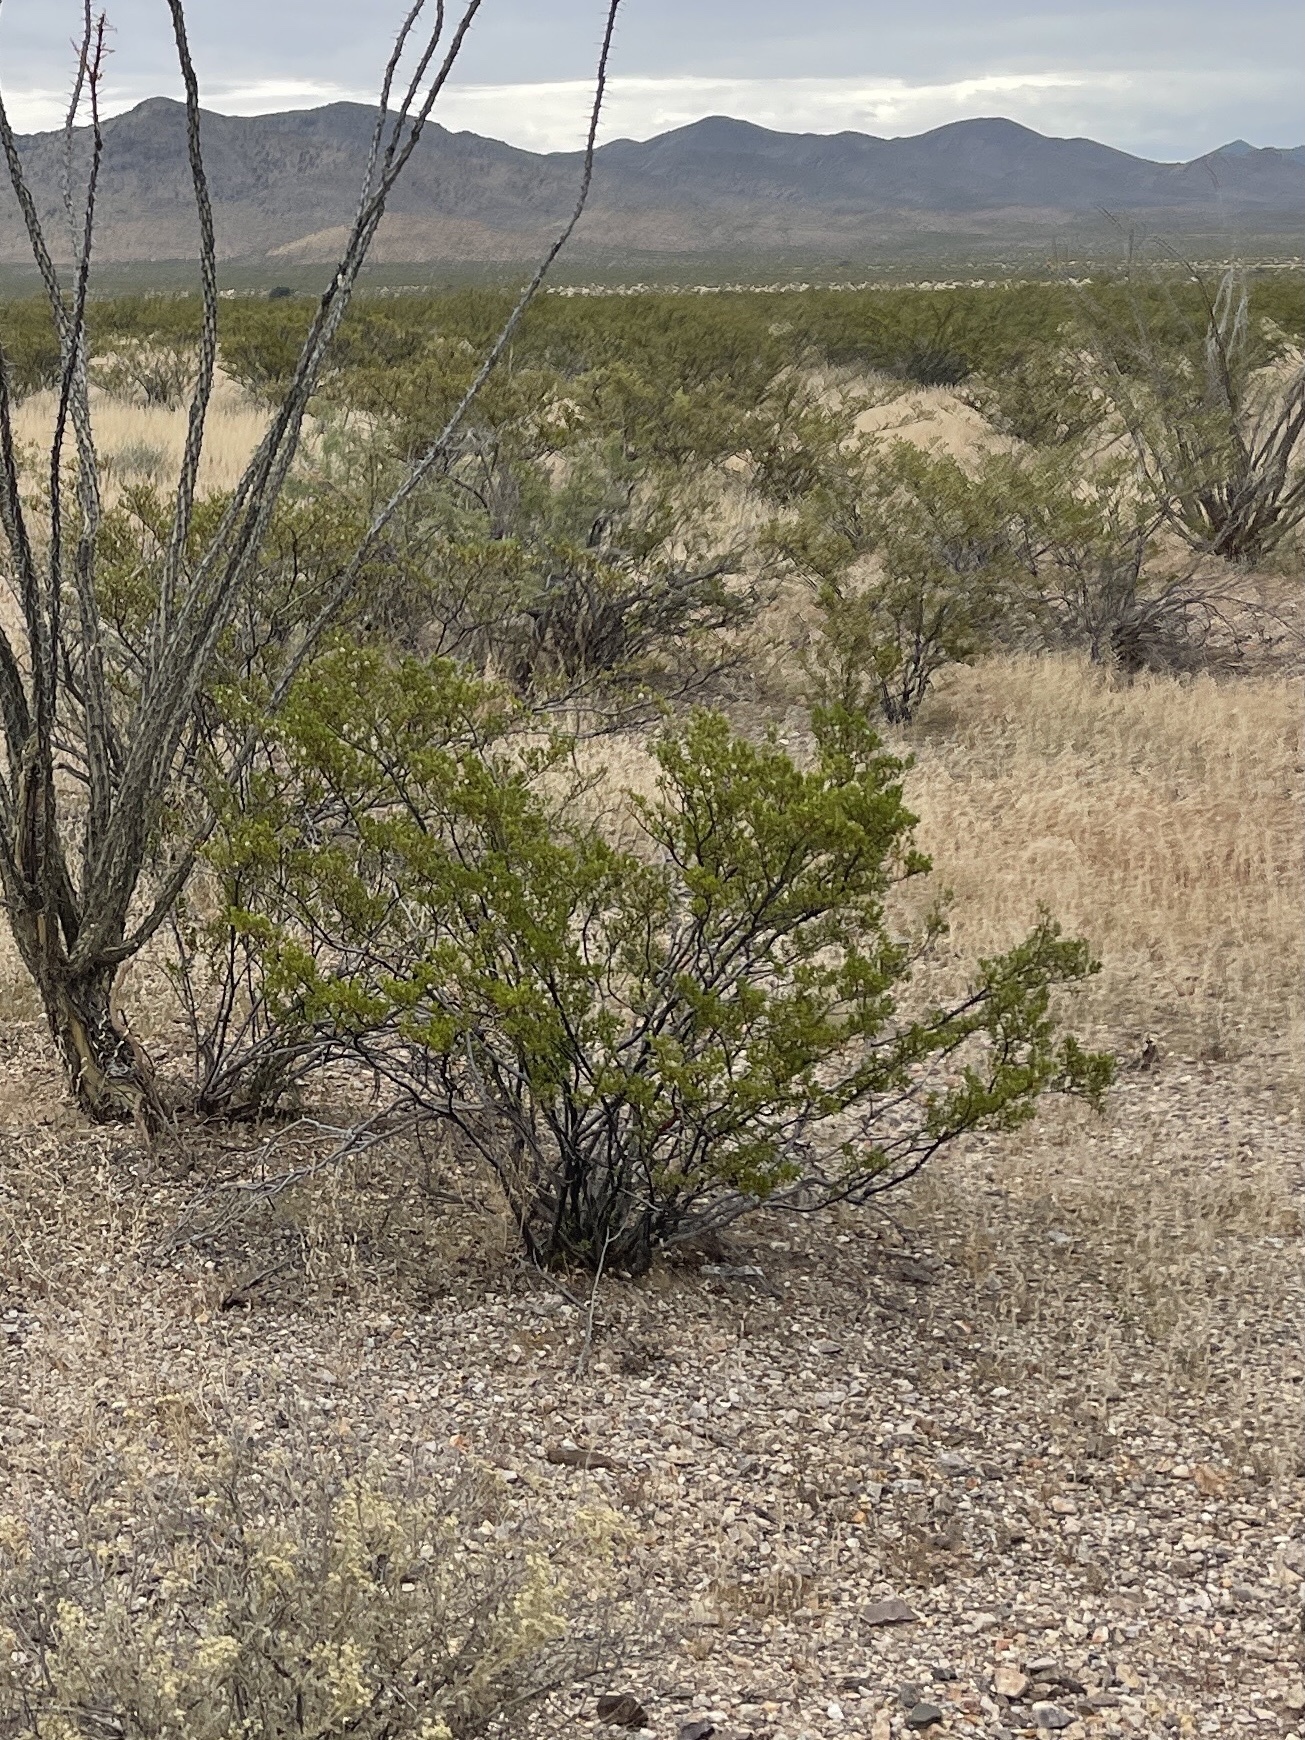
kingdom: Plantae
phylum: Tracheophyta
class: Magnoliopsida
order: Zygophyllales
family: Zygophyllaceae
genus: Larrea
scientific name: Larrea tridentata
